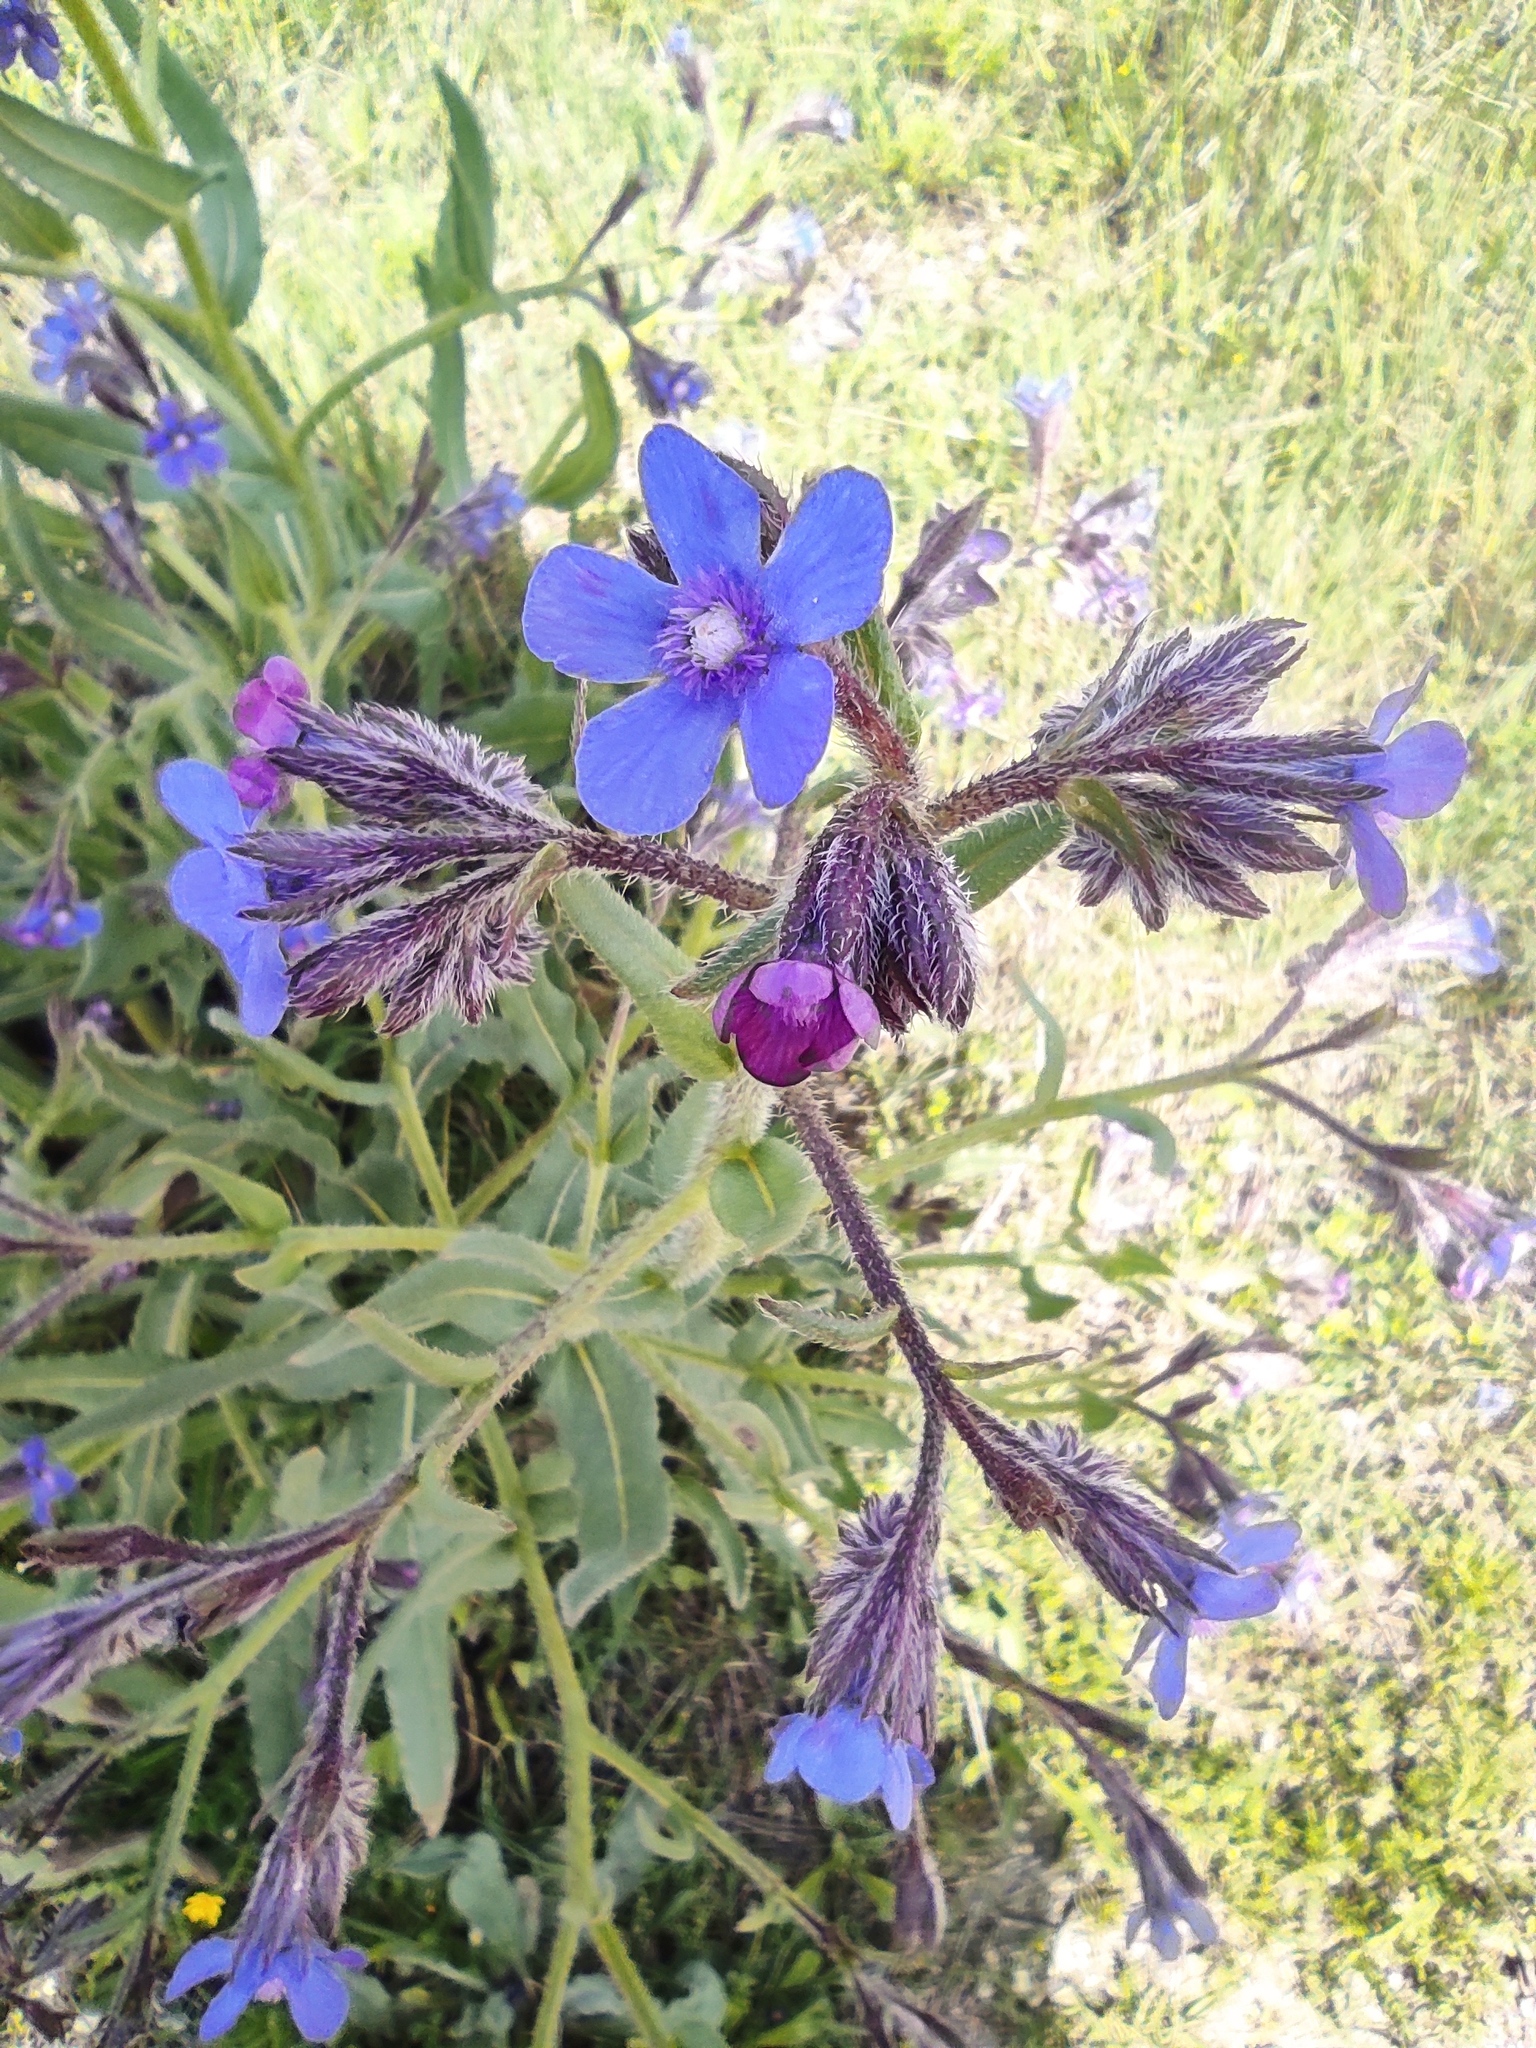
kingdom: Plantae
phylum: Tracheophyta
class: Magnoliopsida
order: Boraginales
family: Boraginaceae
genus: Anchusa
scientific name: Anchusa azurea
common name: Garden anchusa
